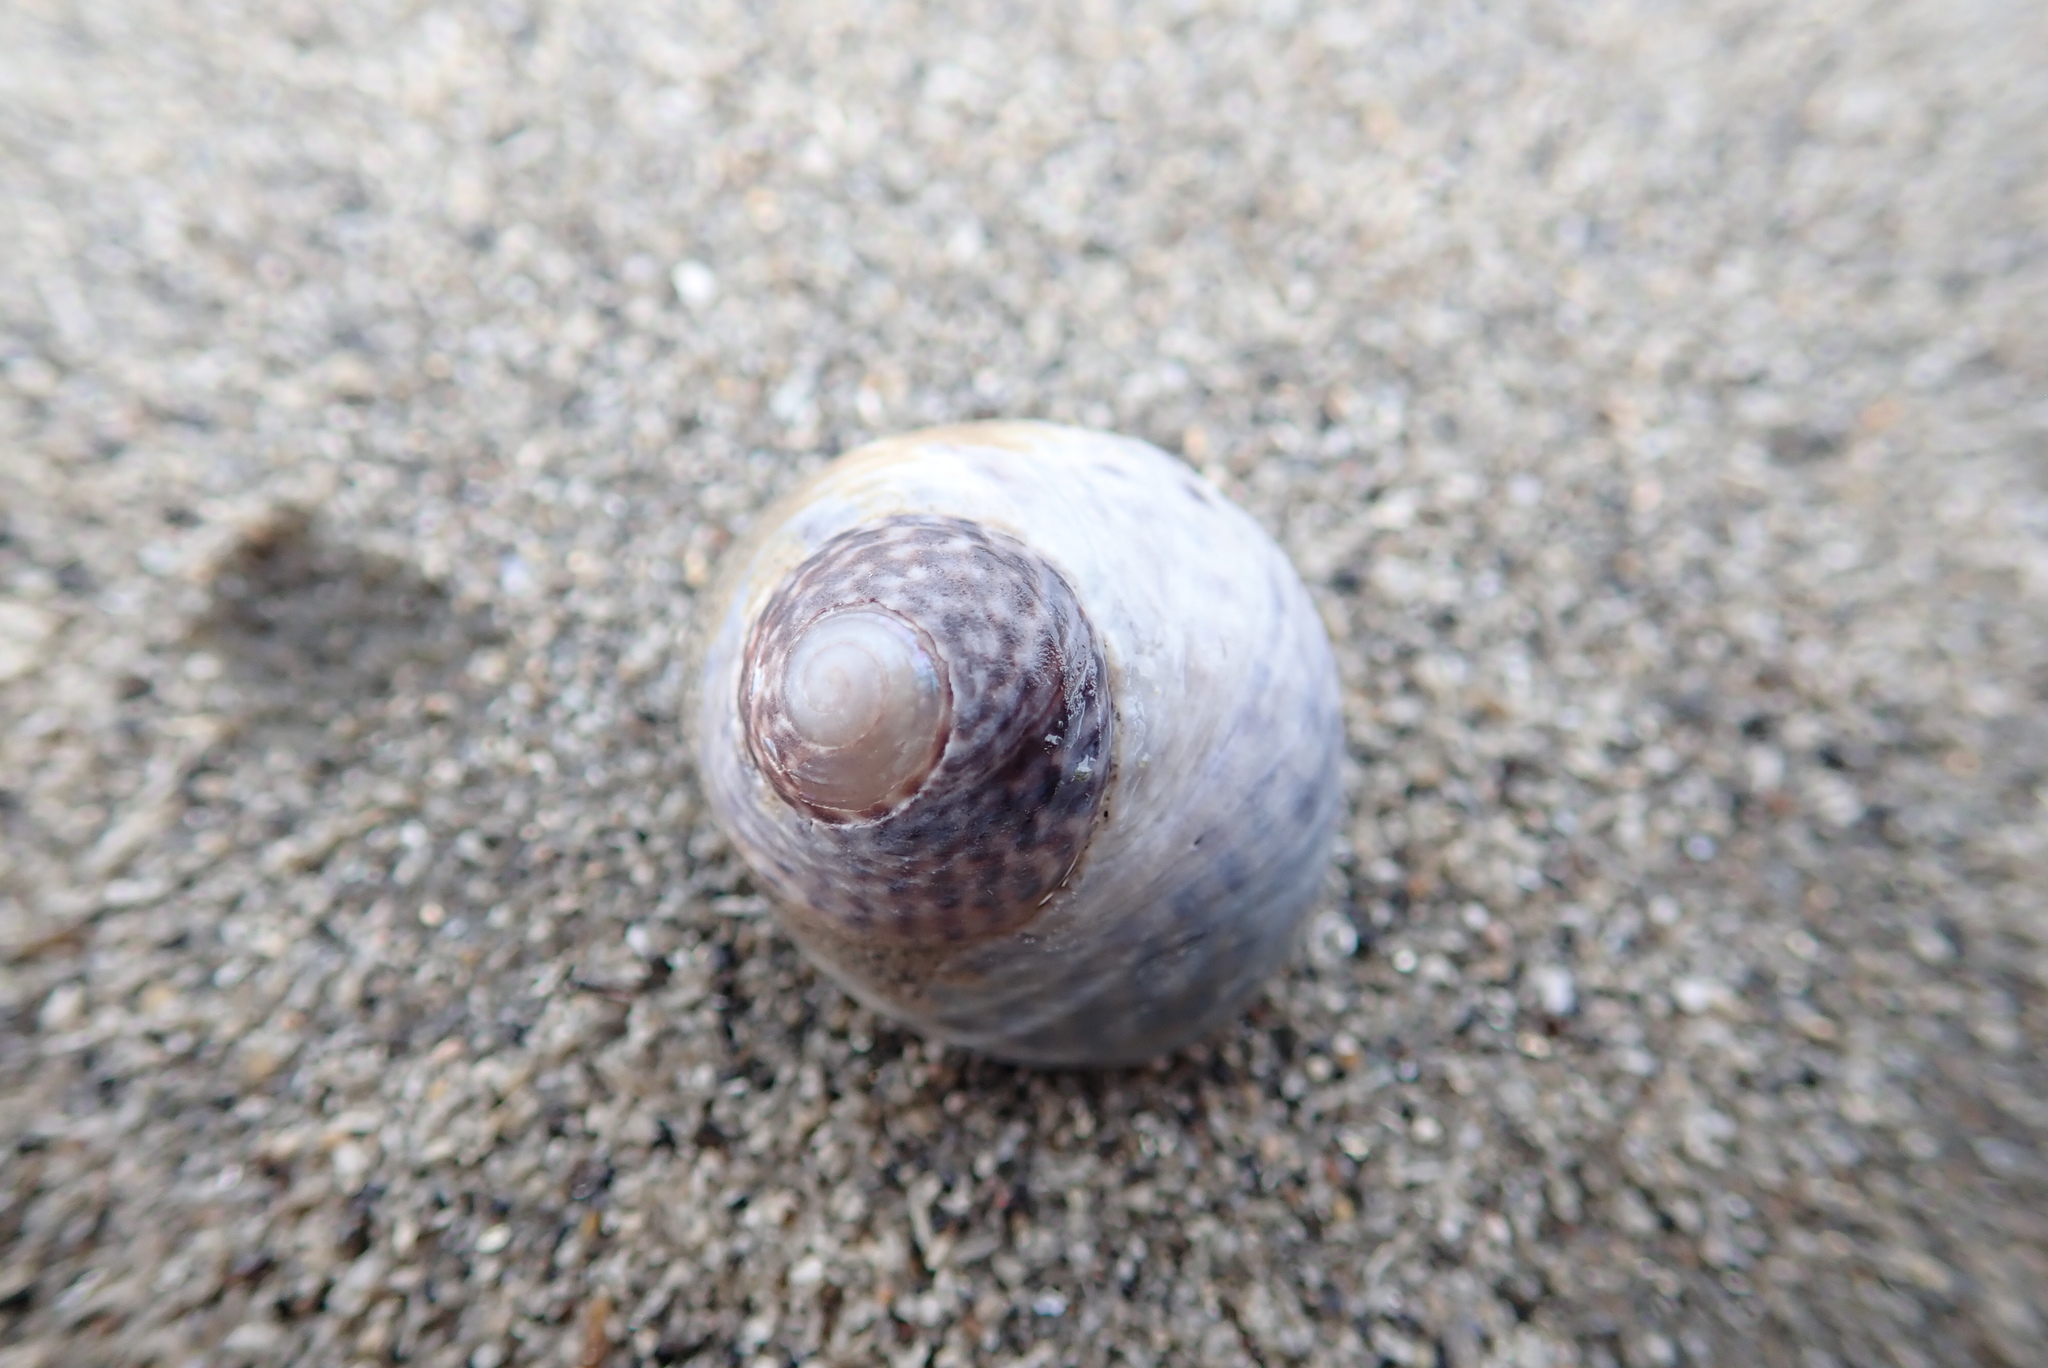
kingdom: Animalia
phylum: Mollusca
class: Gastropoda
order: Trochida
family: Trochidae
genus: Diloma
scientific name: Diloma subrostratum
